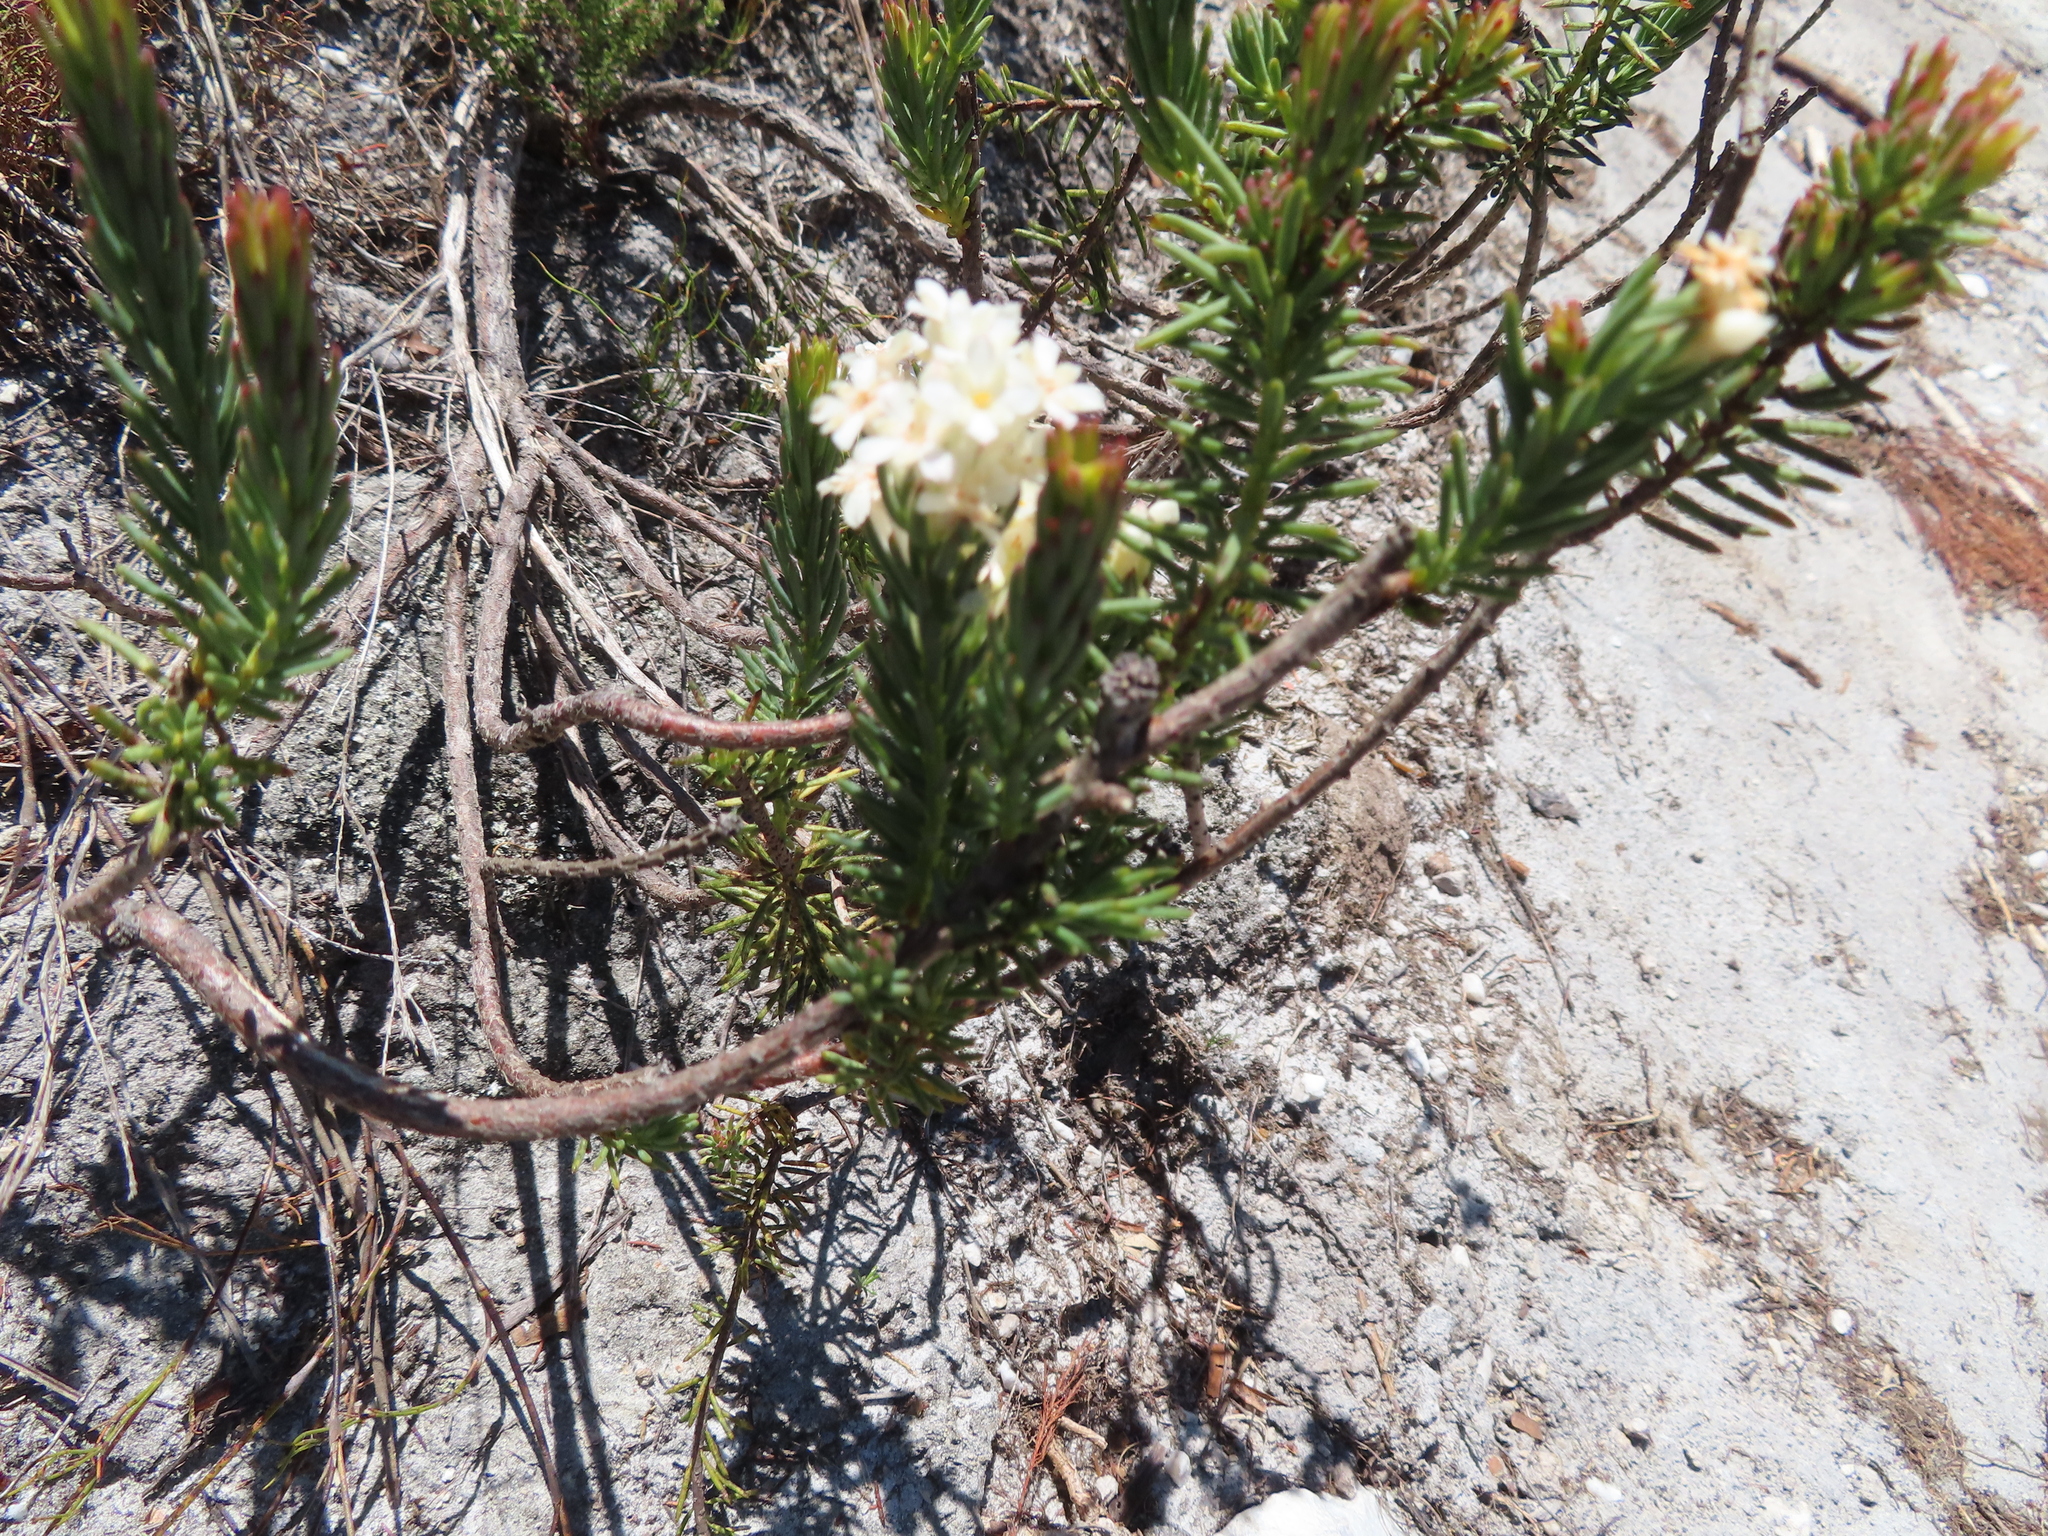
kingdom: Plantae
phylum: Tracheophyta
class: Magnoliopsida
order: Malvales
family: Thymelaeaceae
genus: Gnidia
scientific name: Gnidia pinifolia
